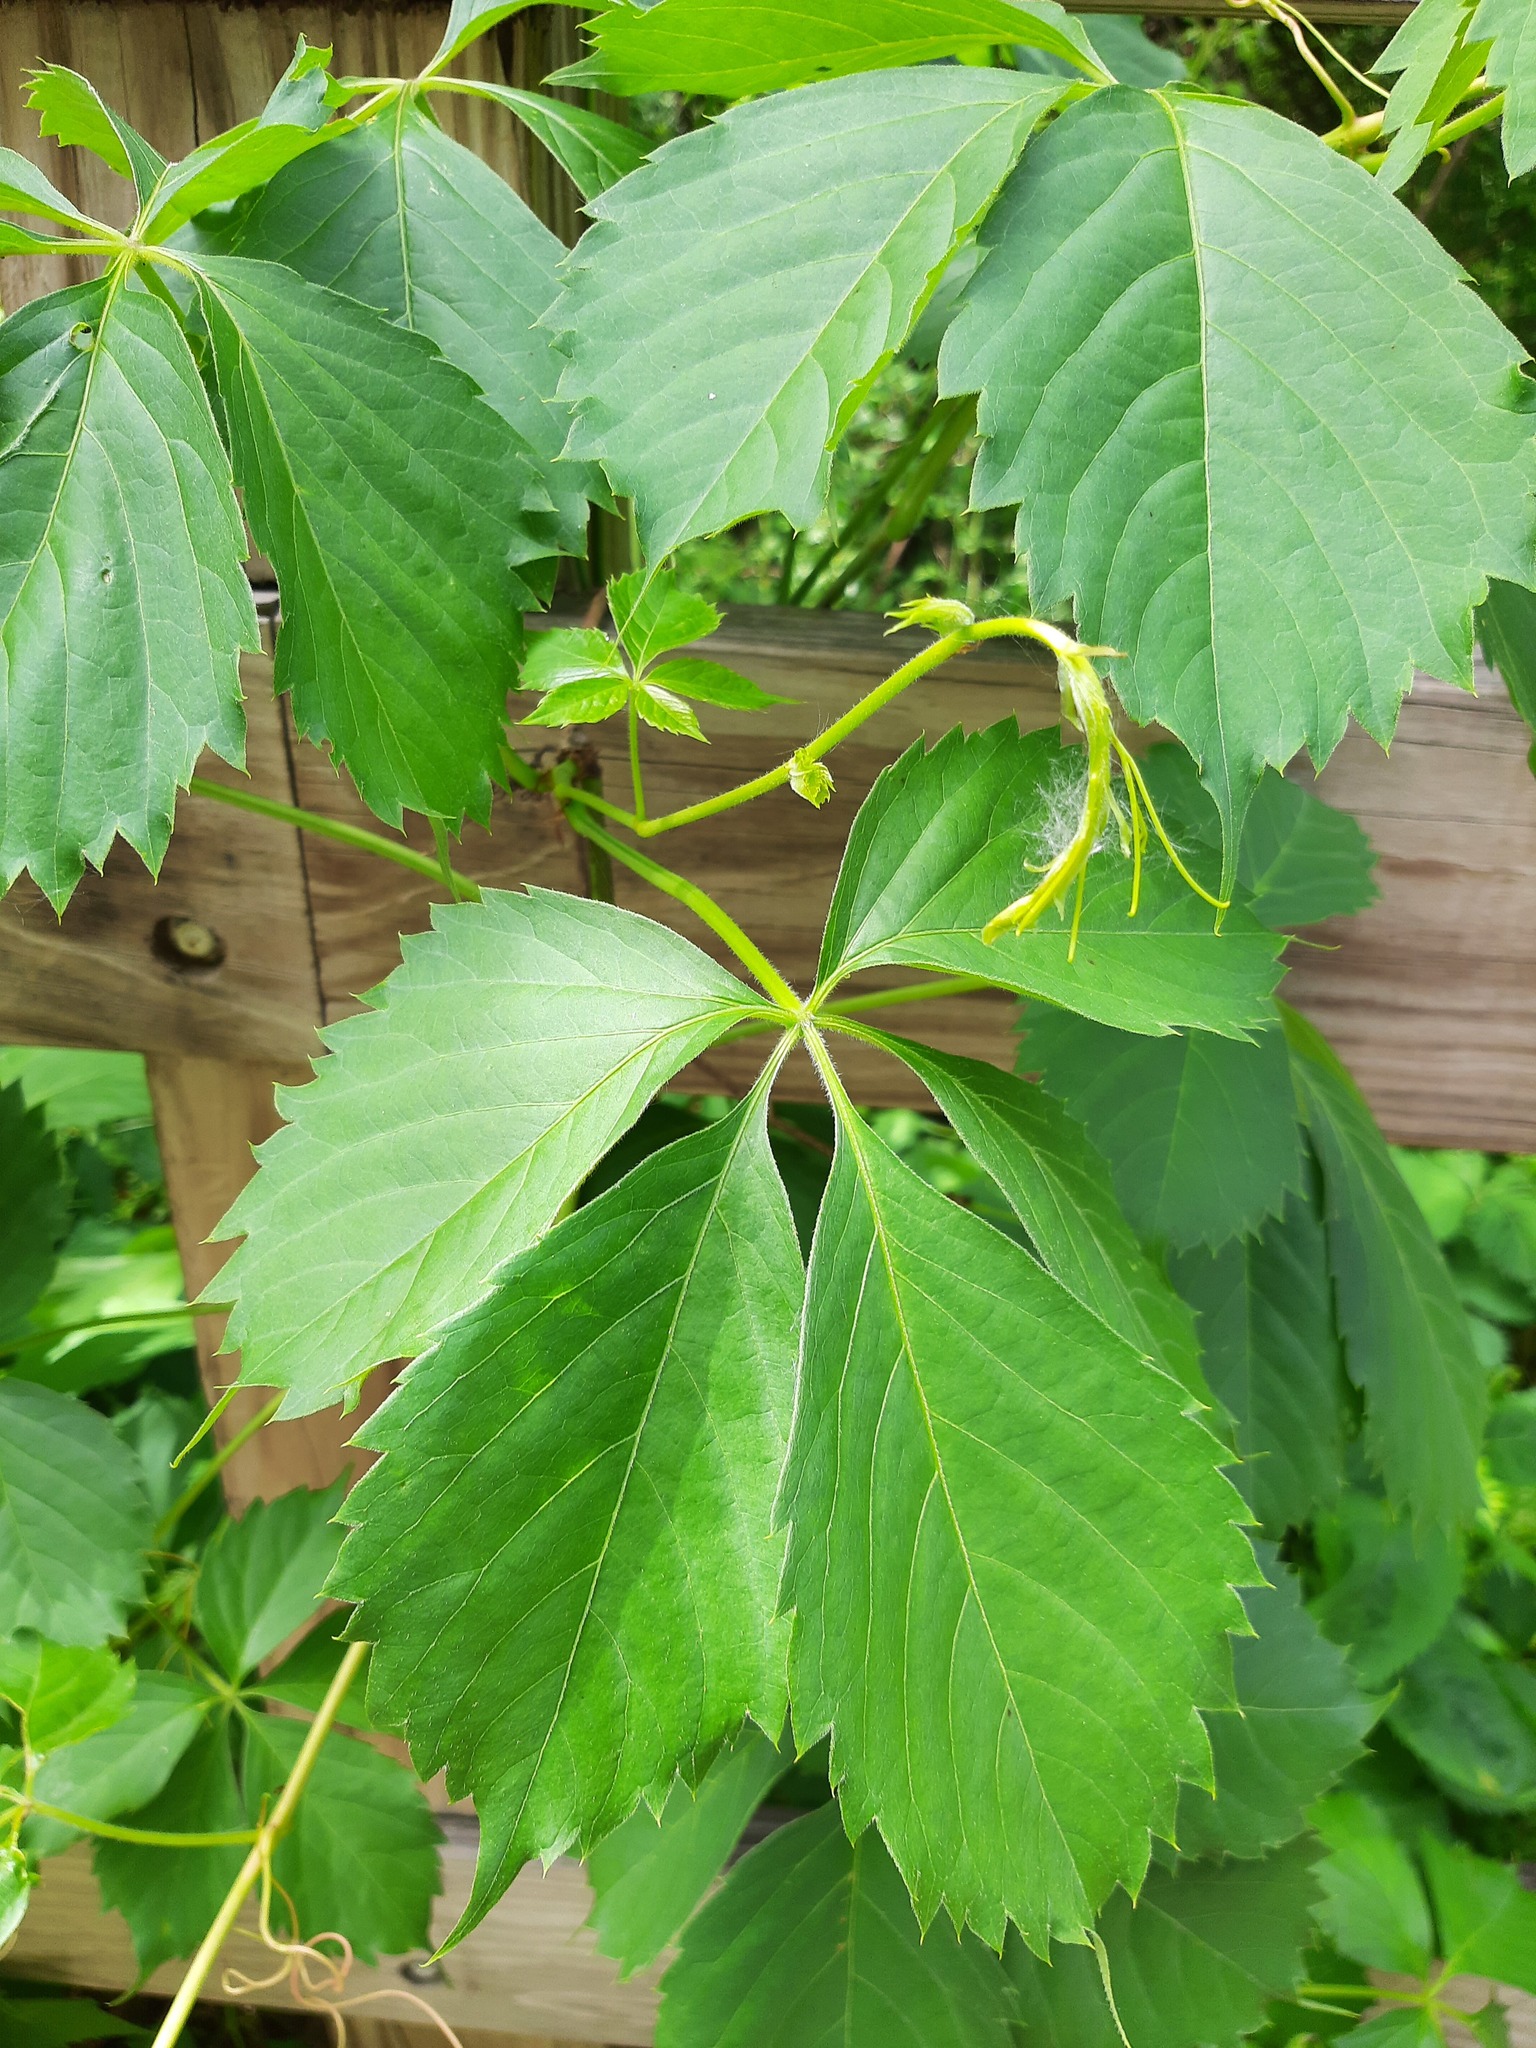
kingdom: Plantae
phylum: Tracheophyta
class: Magnoliopsida
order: Vitales
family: Vitaceae
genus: Parthenocissus
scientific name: Parthenocissus quinquefolia
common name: Virginia-creeper
